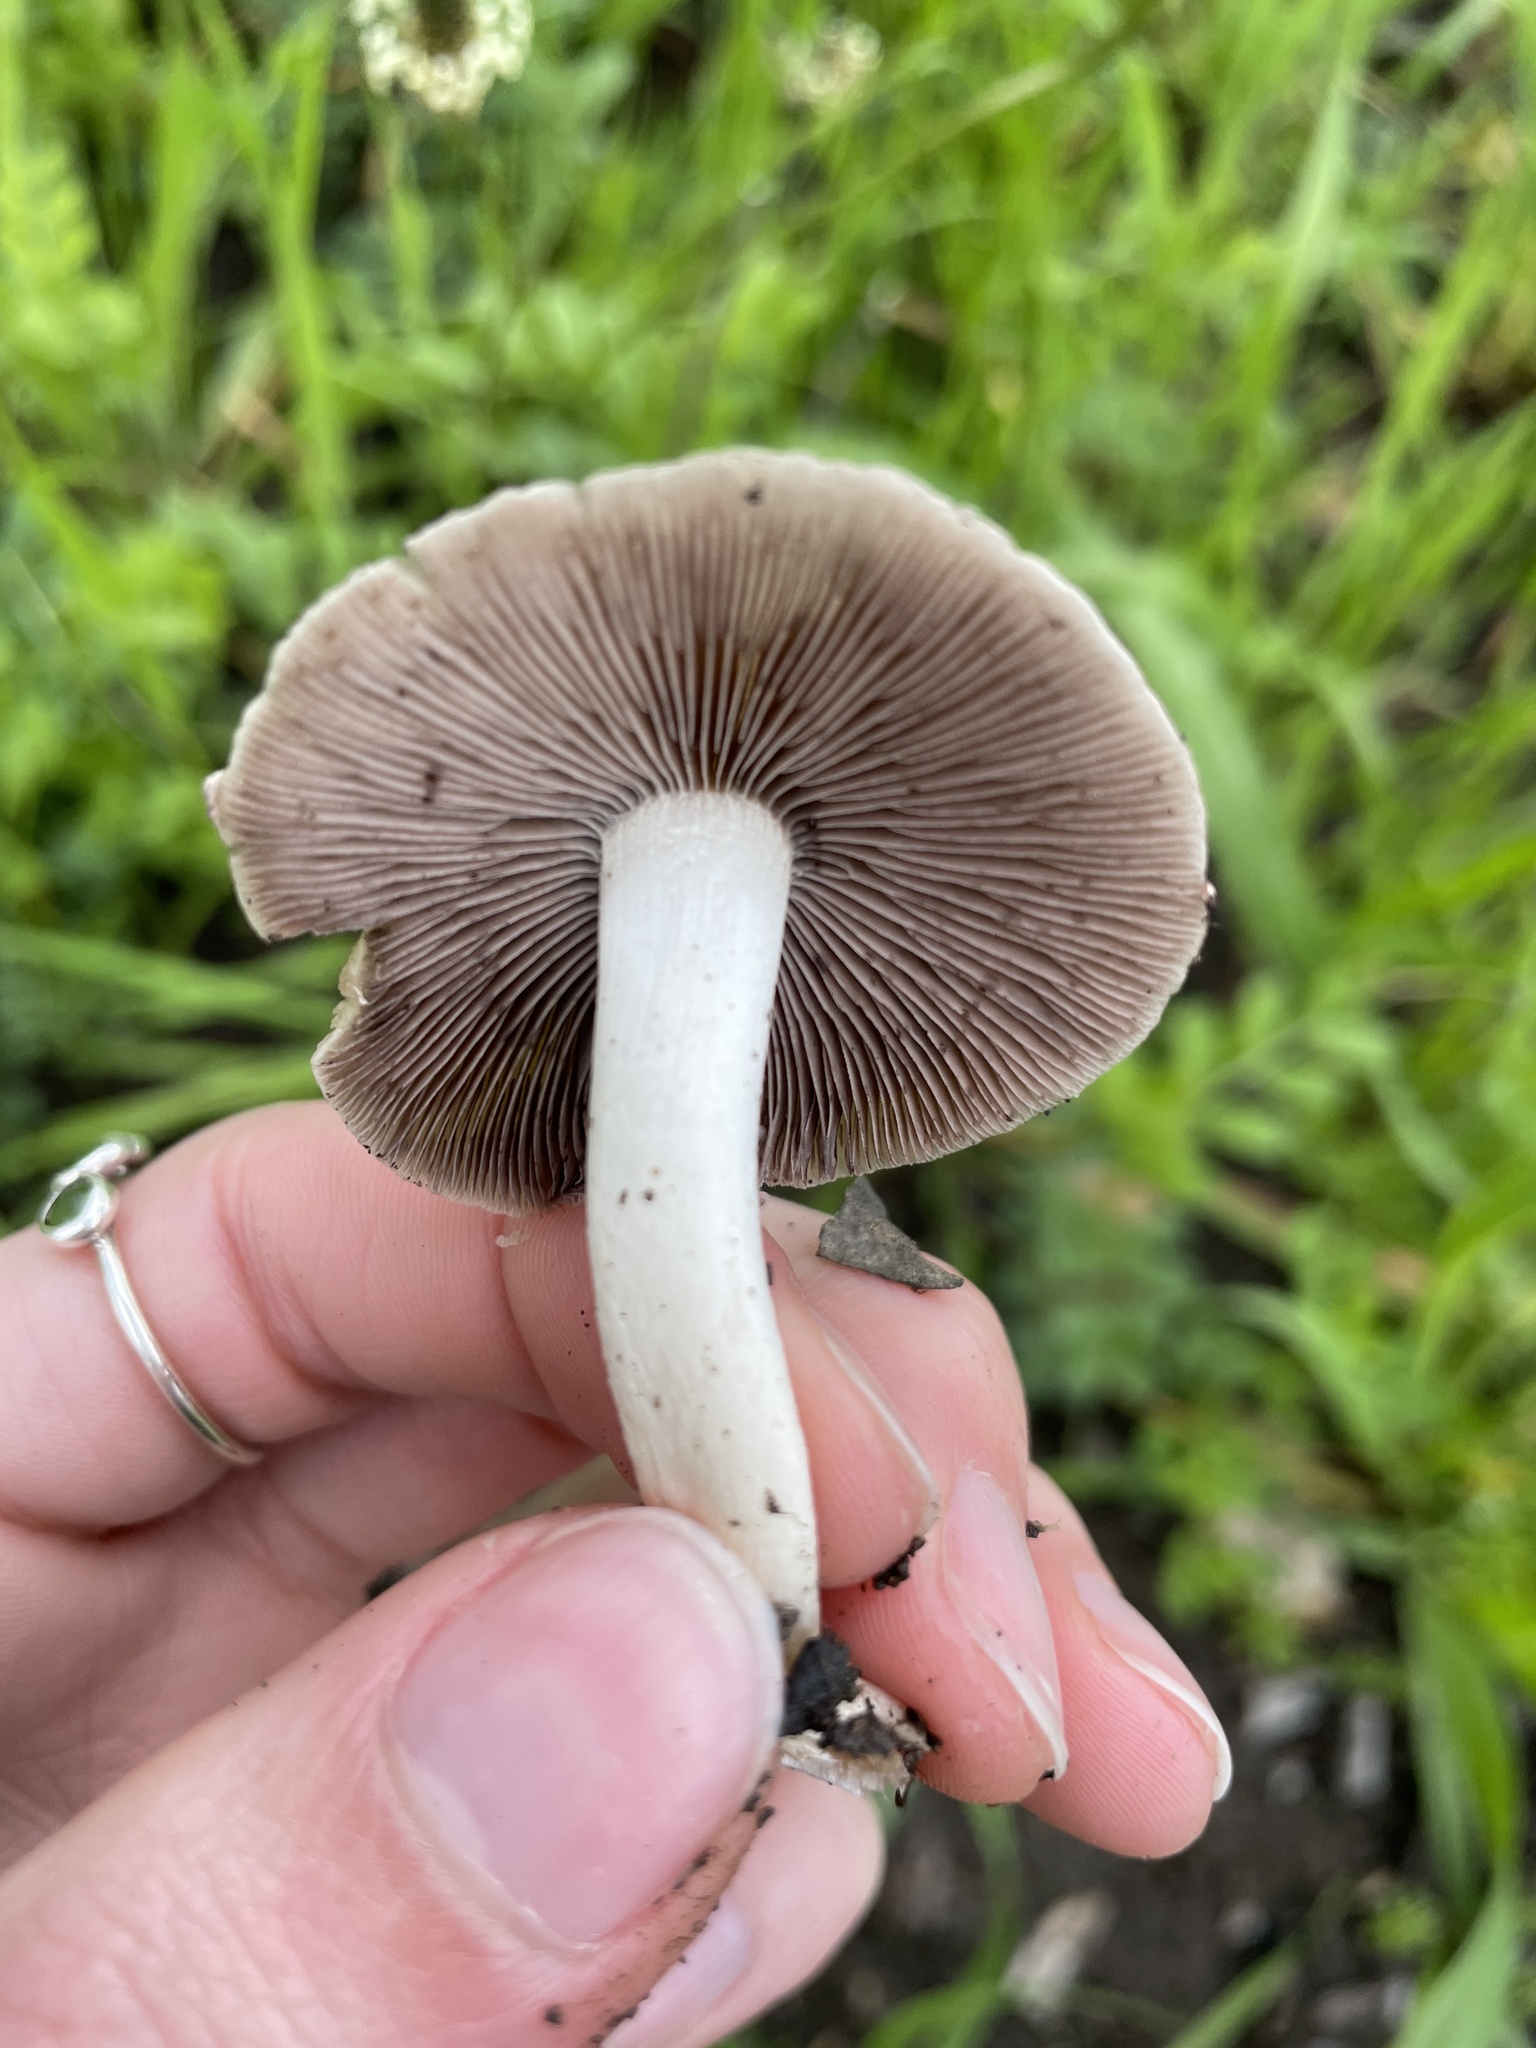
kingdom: Fungi
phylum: Basidiomycota
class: Agaricomycetes
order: Agaricales
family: Psathyrellaceae
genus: Candolleomyces
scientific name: Candolleomyces candolleanus
